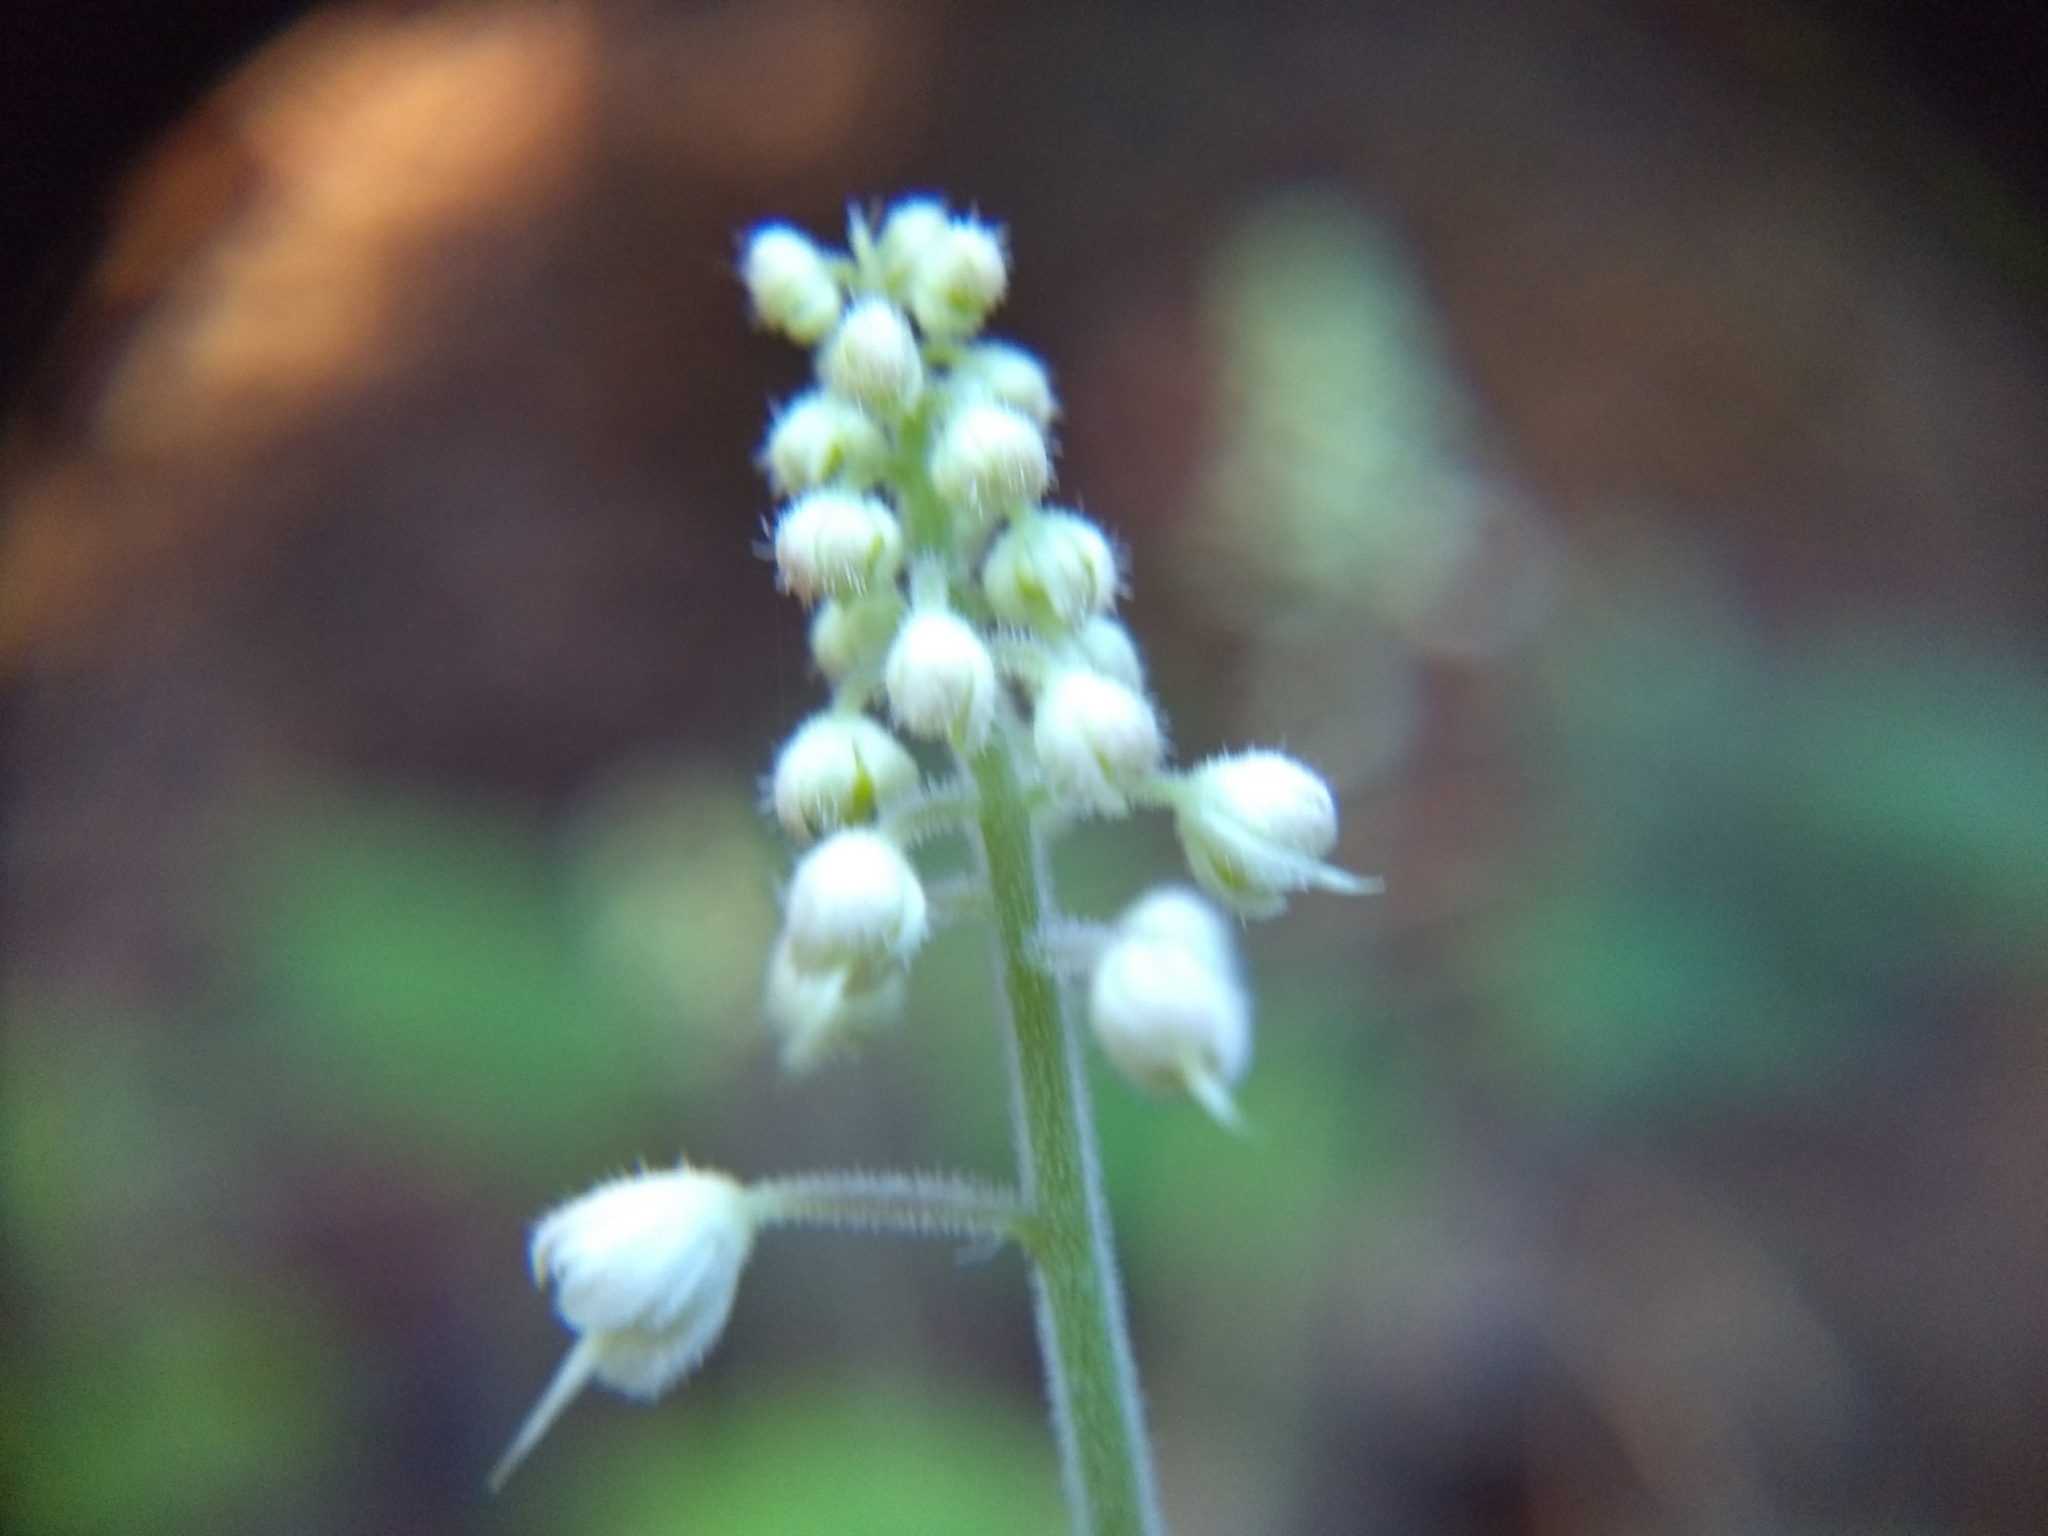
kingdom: Plantae
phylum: Tracheophyta
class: Magnoliopsida
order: Saxifragales
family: Saxifragaceae
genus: Tiarella
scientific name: Tiarella stolonifera
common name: Stoloniferous foamflower
